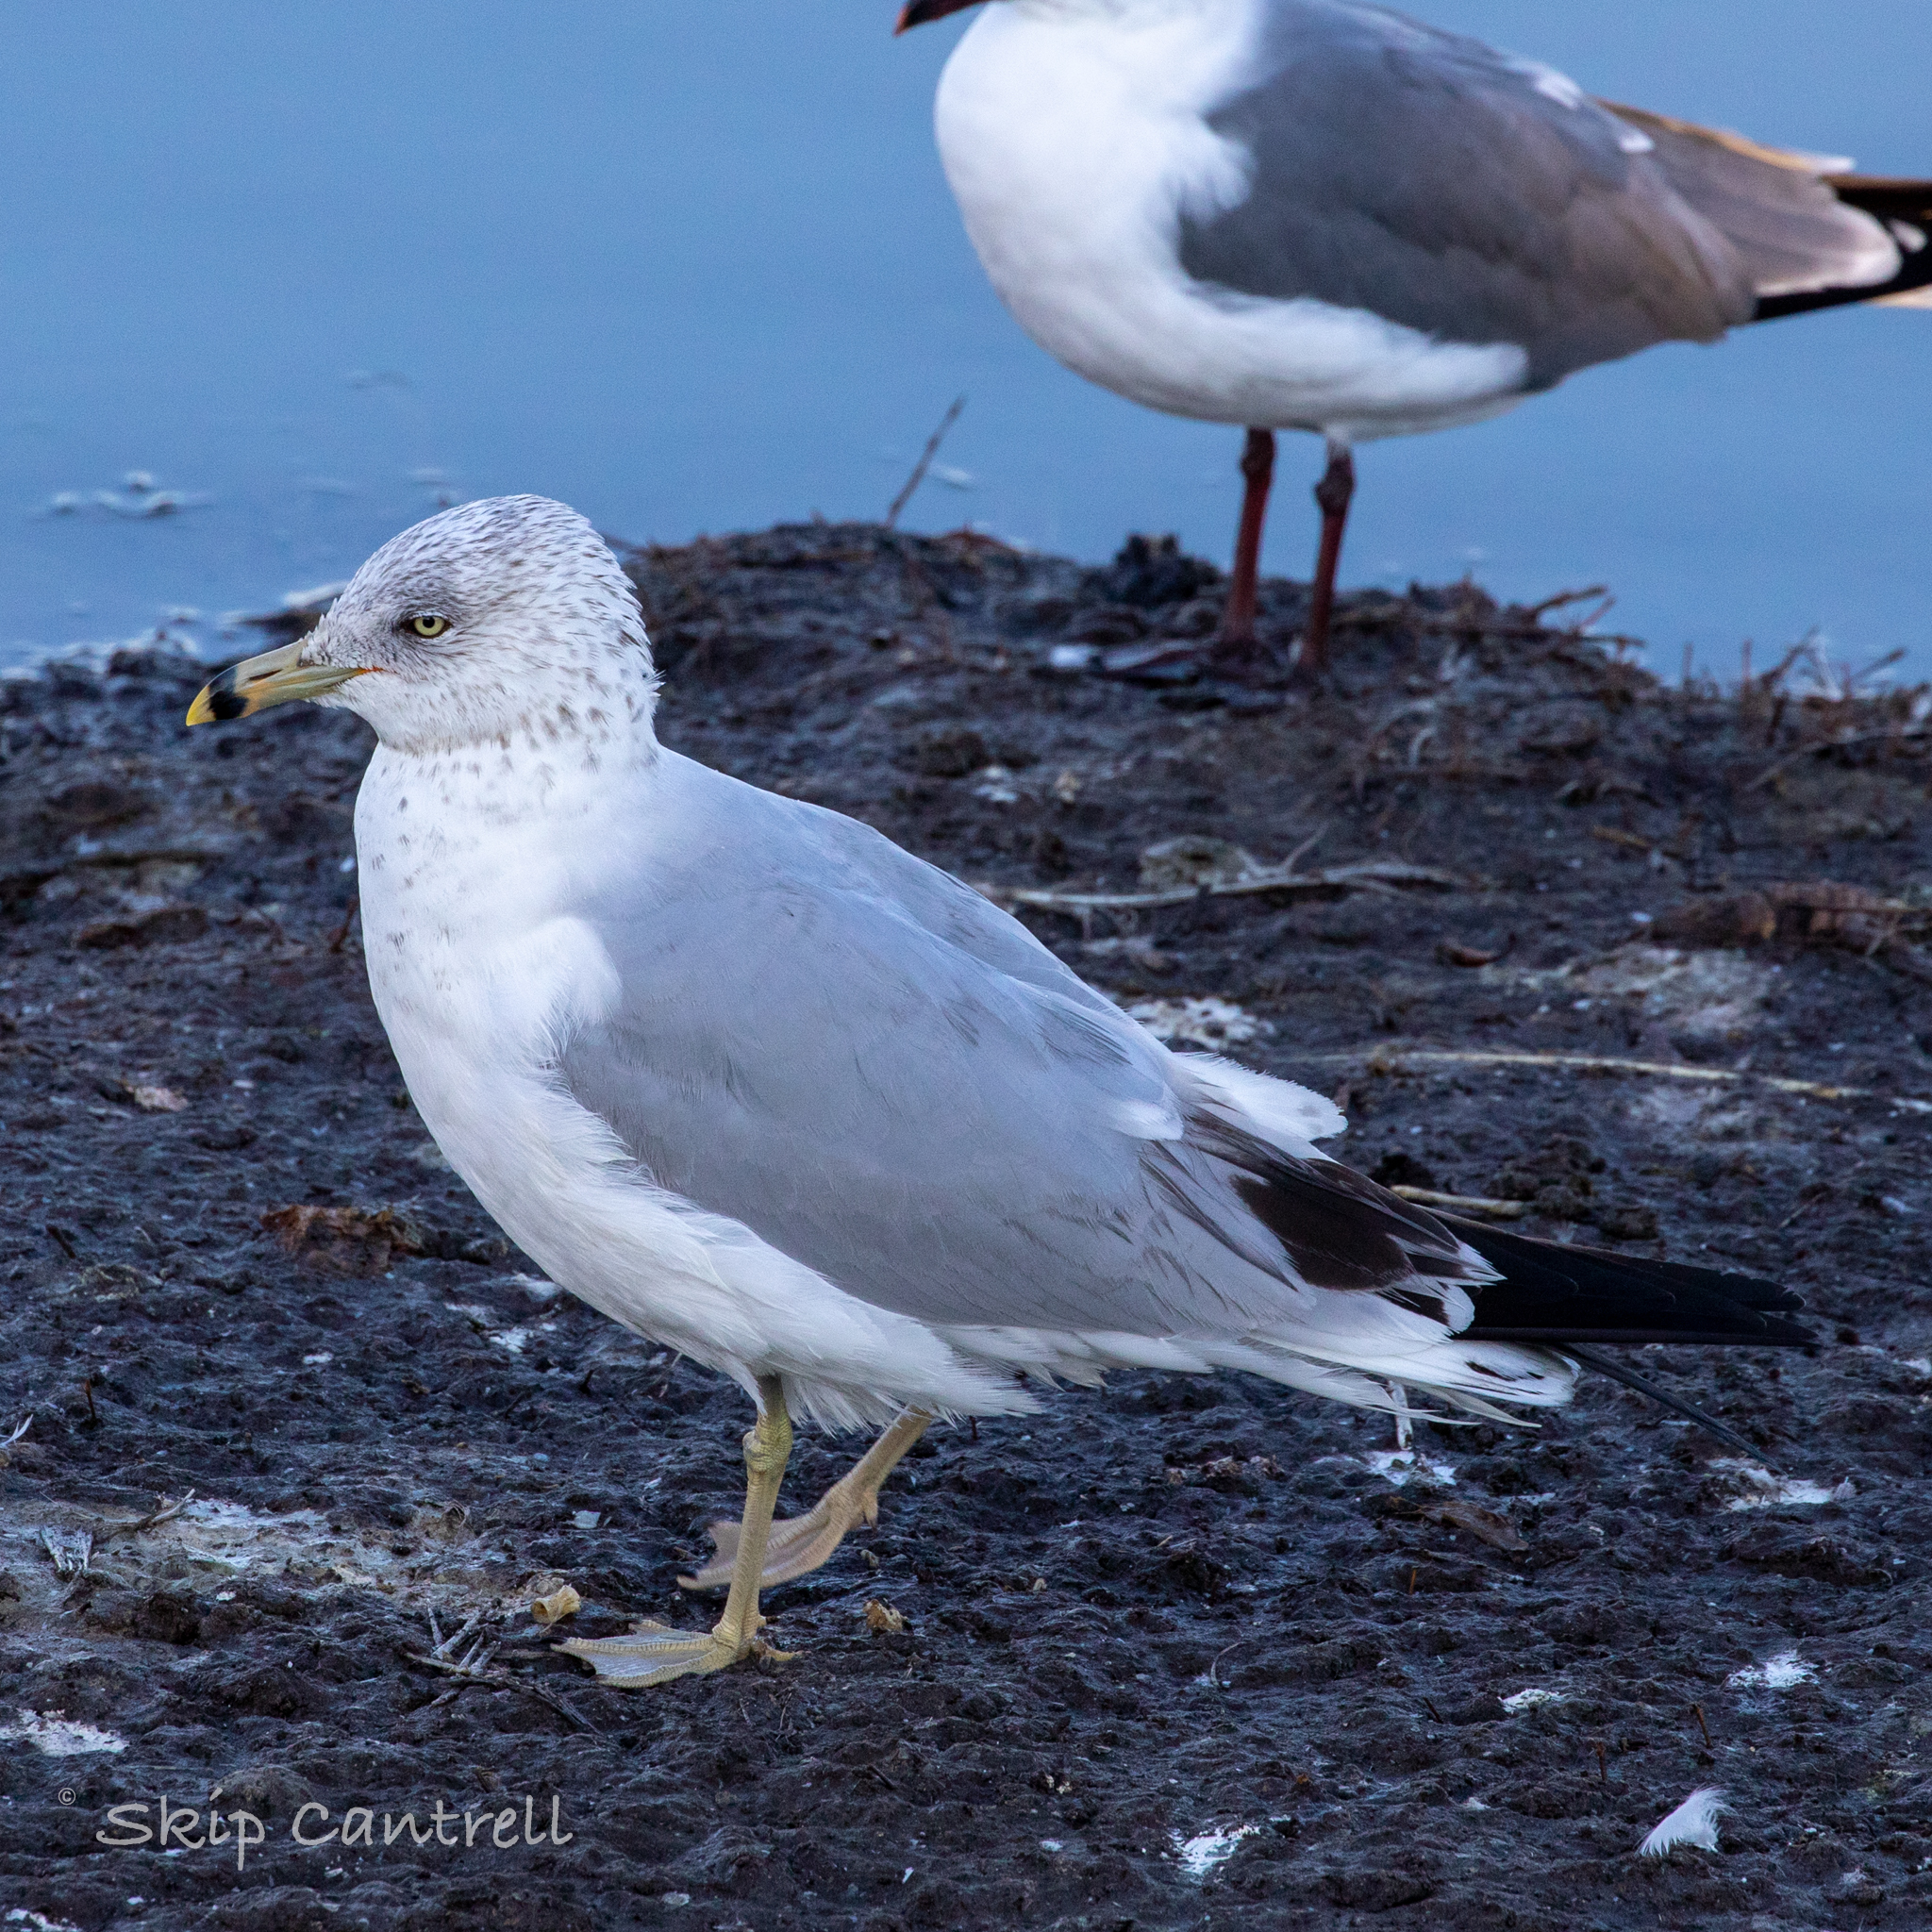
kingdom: Animalia
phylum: Chordata
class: Aves
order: Charadriiformes
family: Laridae
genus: Larus
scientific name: Larus delawarensis
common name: Ring-billed gull
